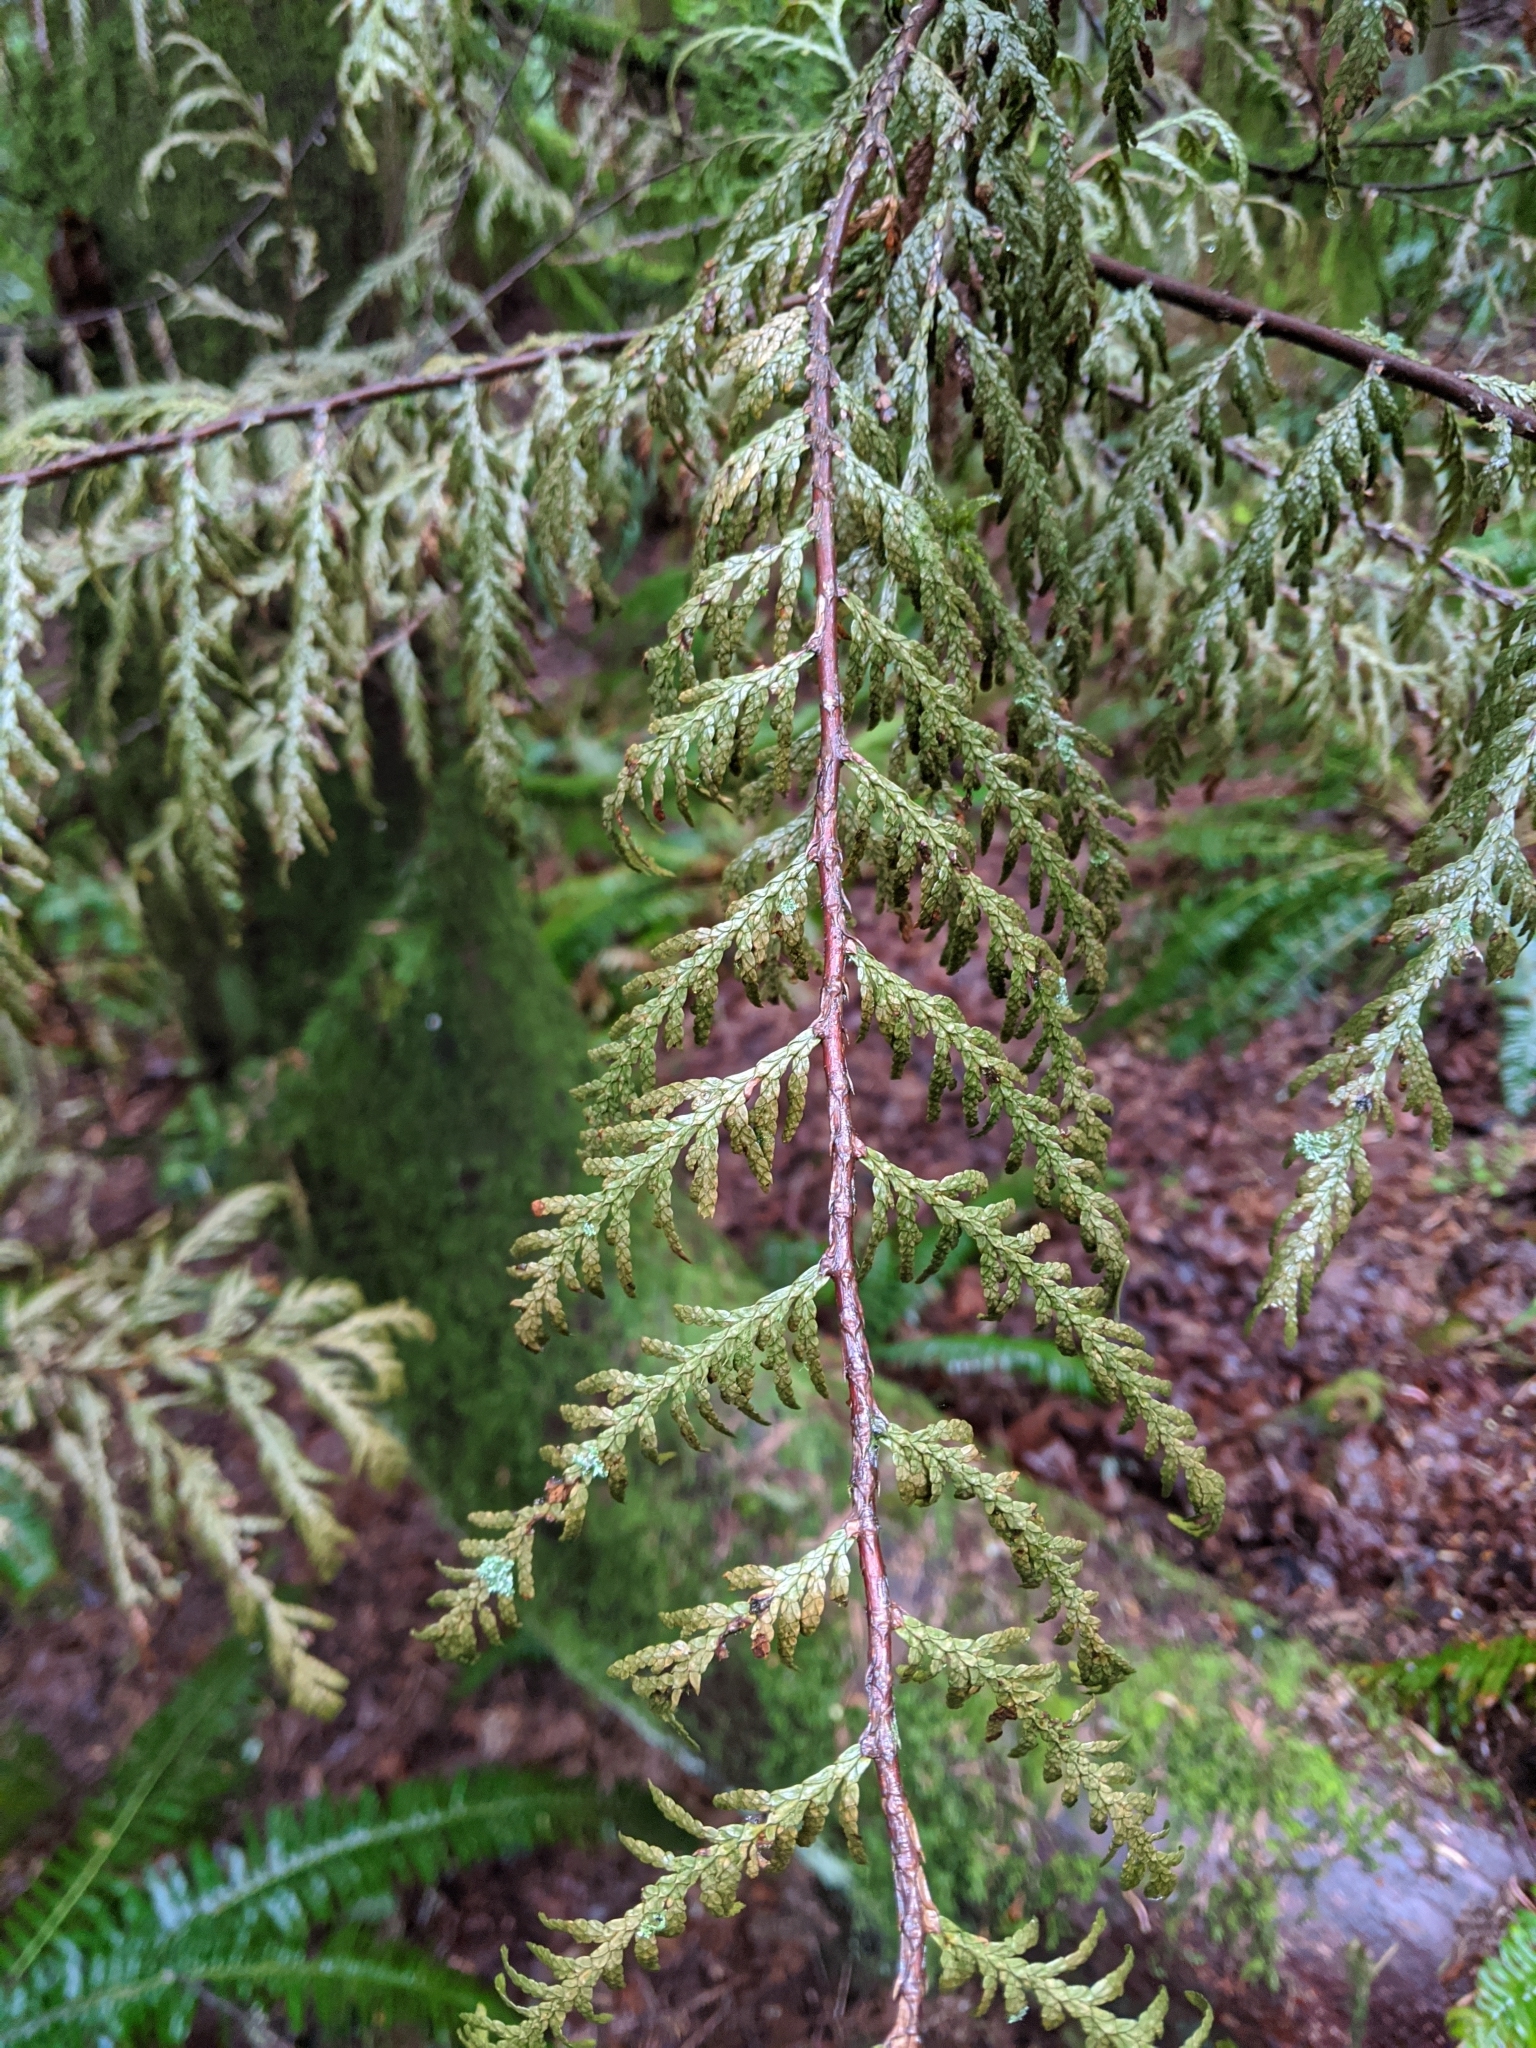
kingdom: Plantae
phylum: Tracheophyta
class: Pinopsida
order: Pinales
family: Cupressaceae
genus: Thuja
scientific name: Thuja plicata
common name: Western red-cedar
